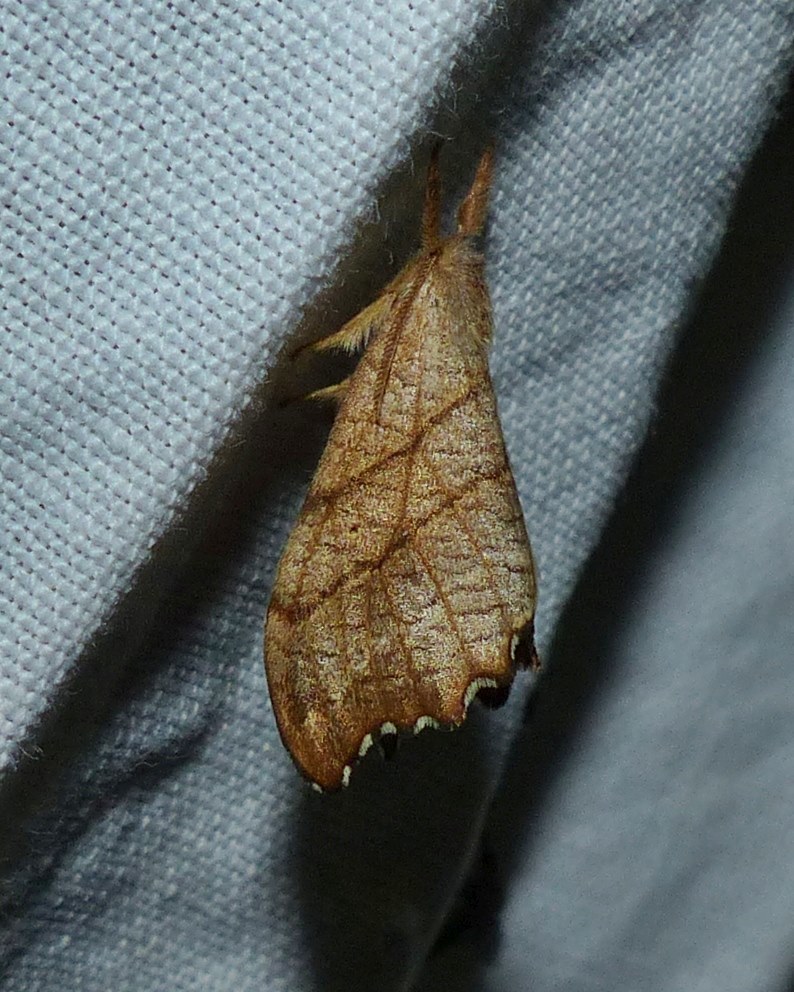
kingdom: Animalia
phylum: Arthropoda
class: Insecta
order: Lepidoptera
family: Drepanidae
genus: Falcaria
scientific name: Falcaria bilineata
